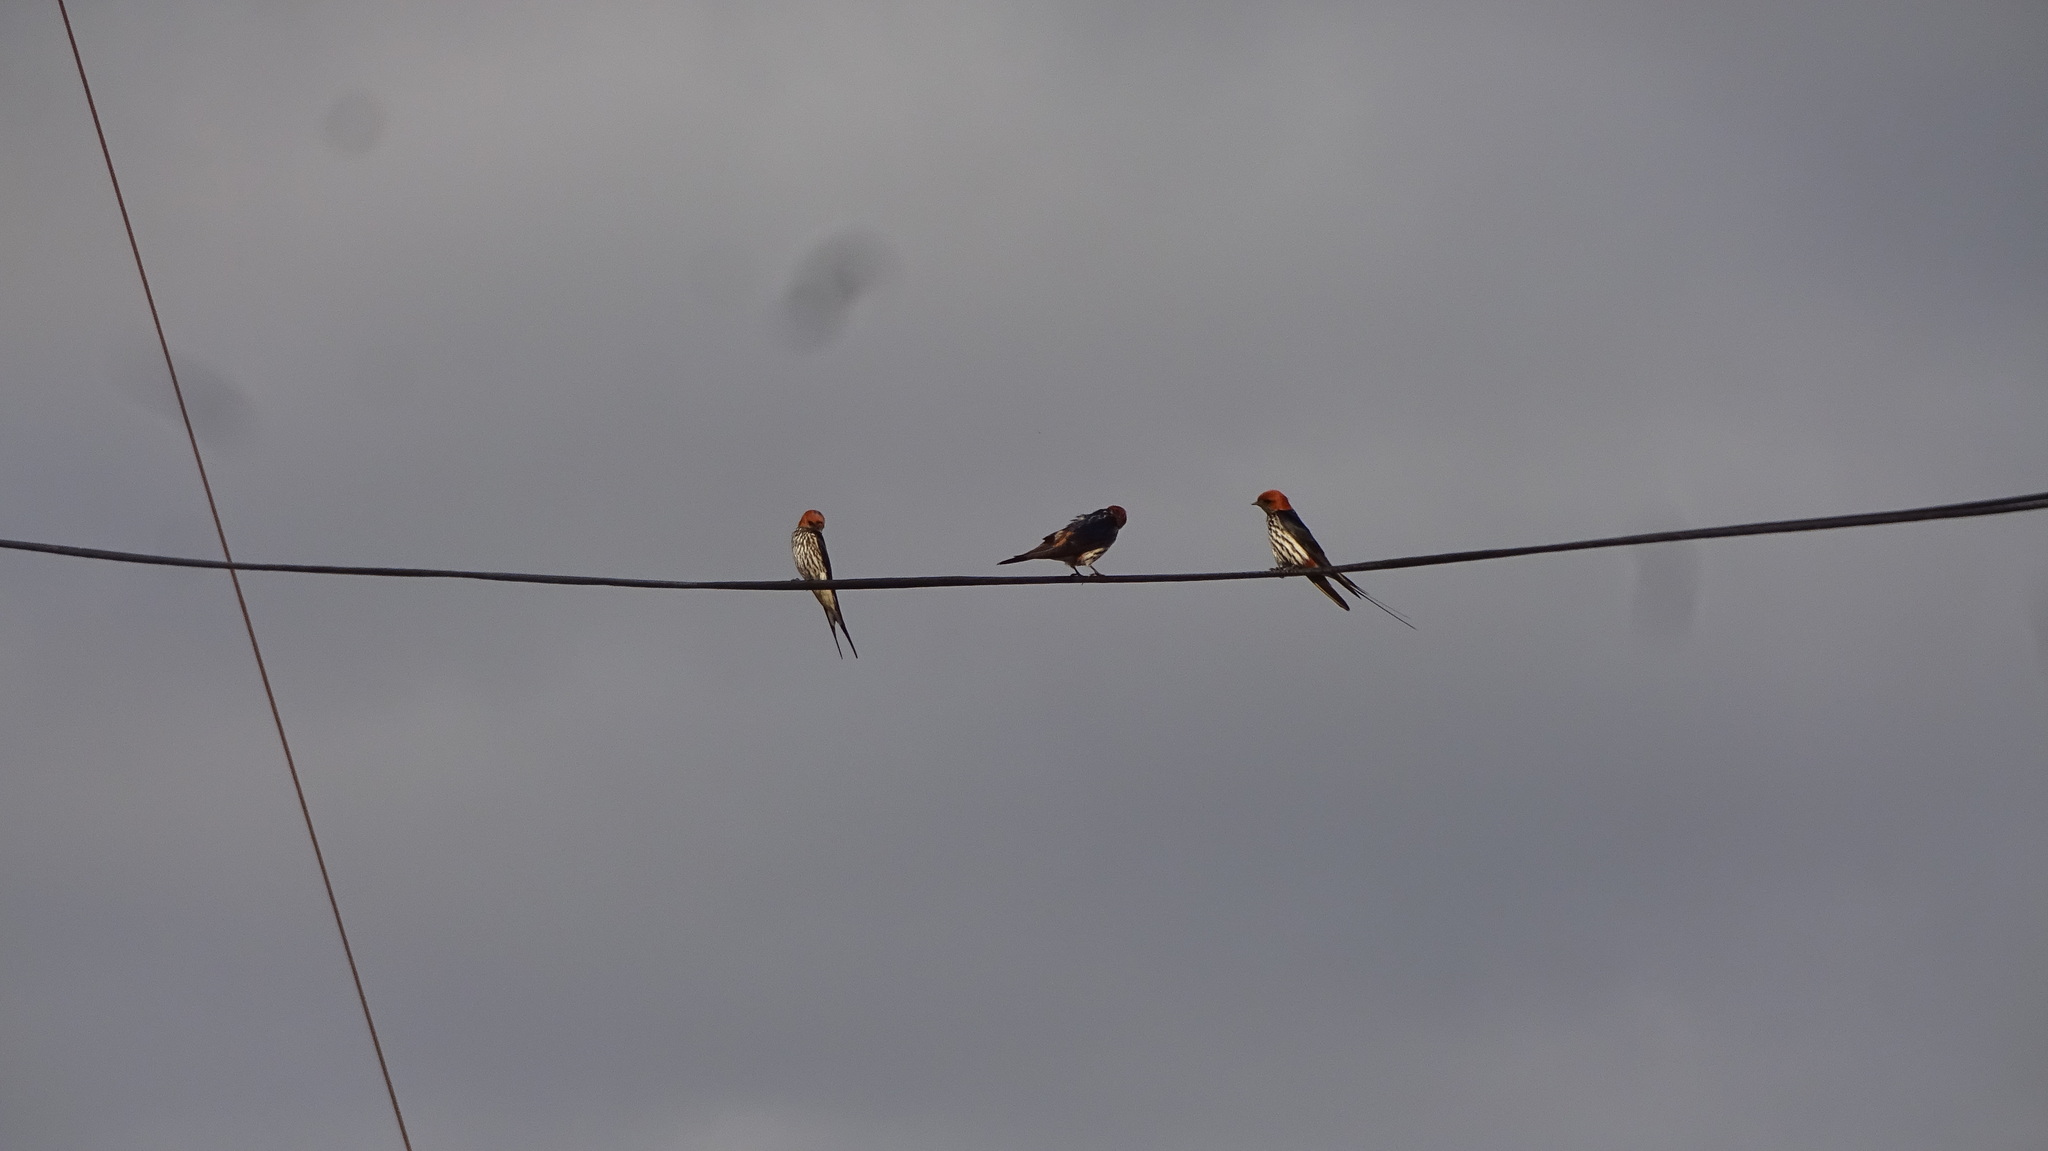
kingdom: Animalia
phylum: Chordata
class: Aves
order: Passeriformes
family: Hirundinidae
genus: Cecropis
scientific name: Cecropis abyssinica
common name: Lesser striped-swallow
